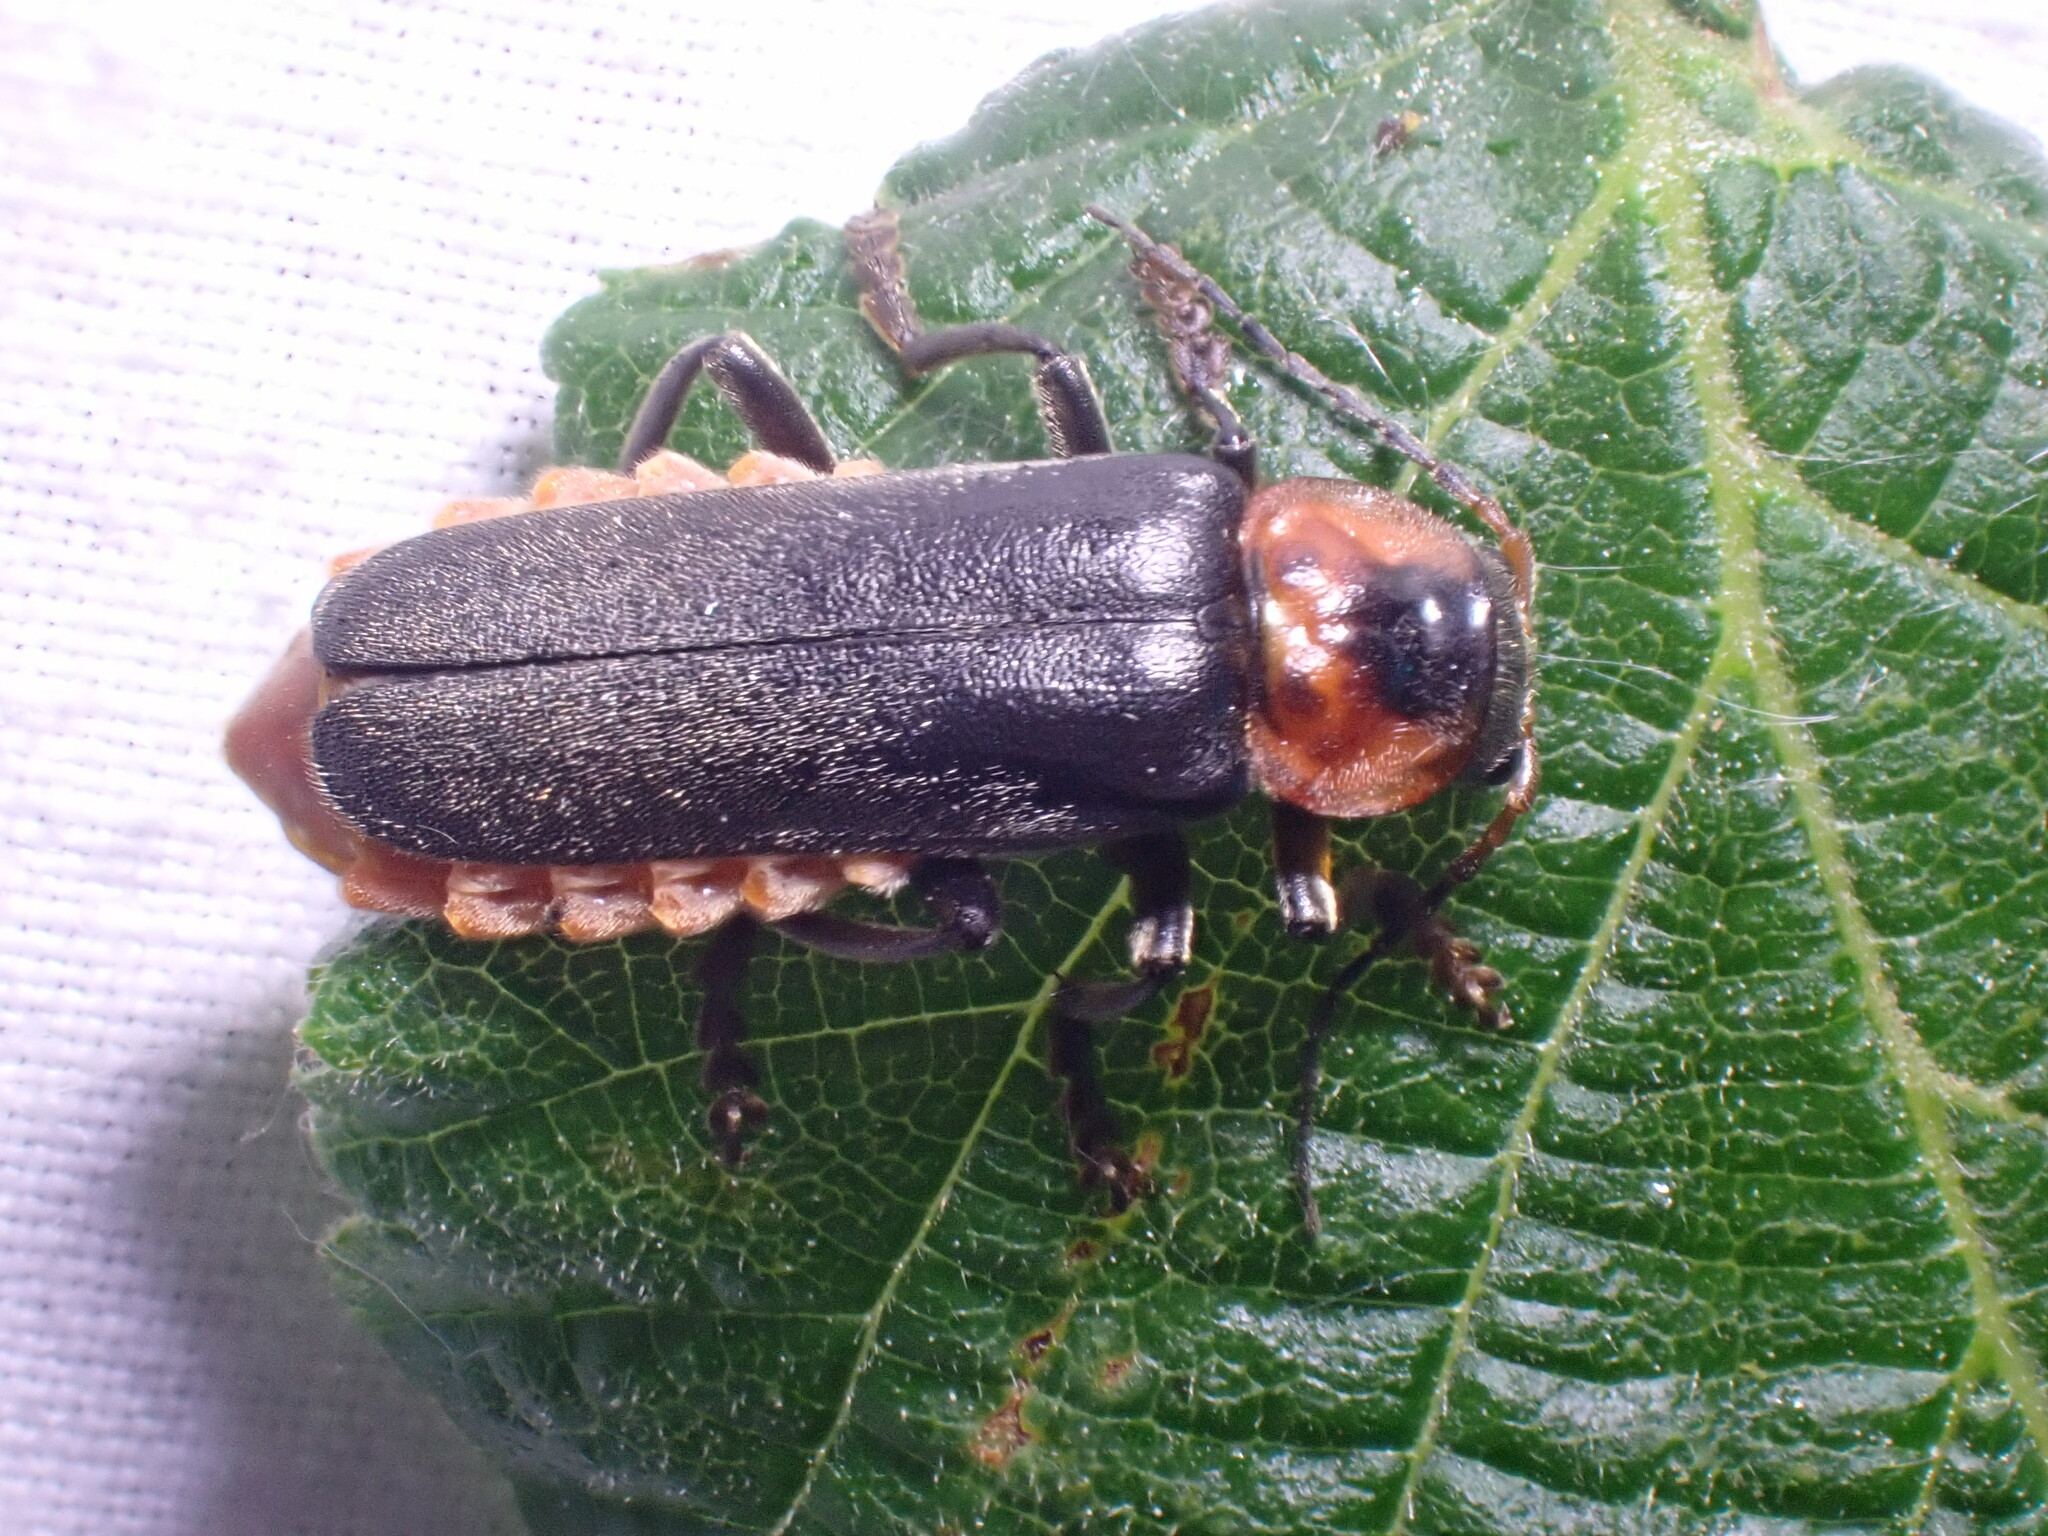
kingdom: Animalia
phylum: Arthropoda
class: Insecta
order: Coleoptera
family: Cantharidae
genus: Cantharis
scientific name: Cantharis fusca
